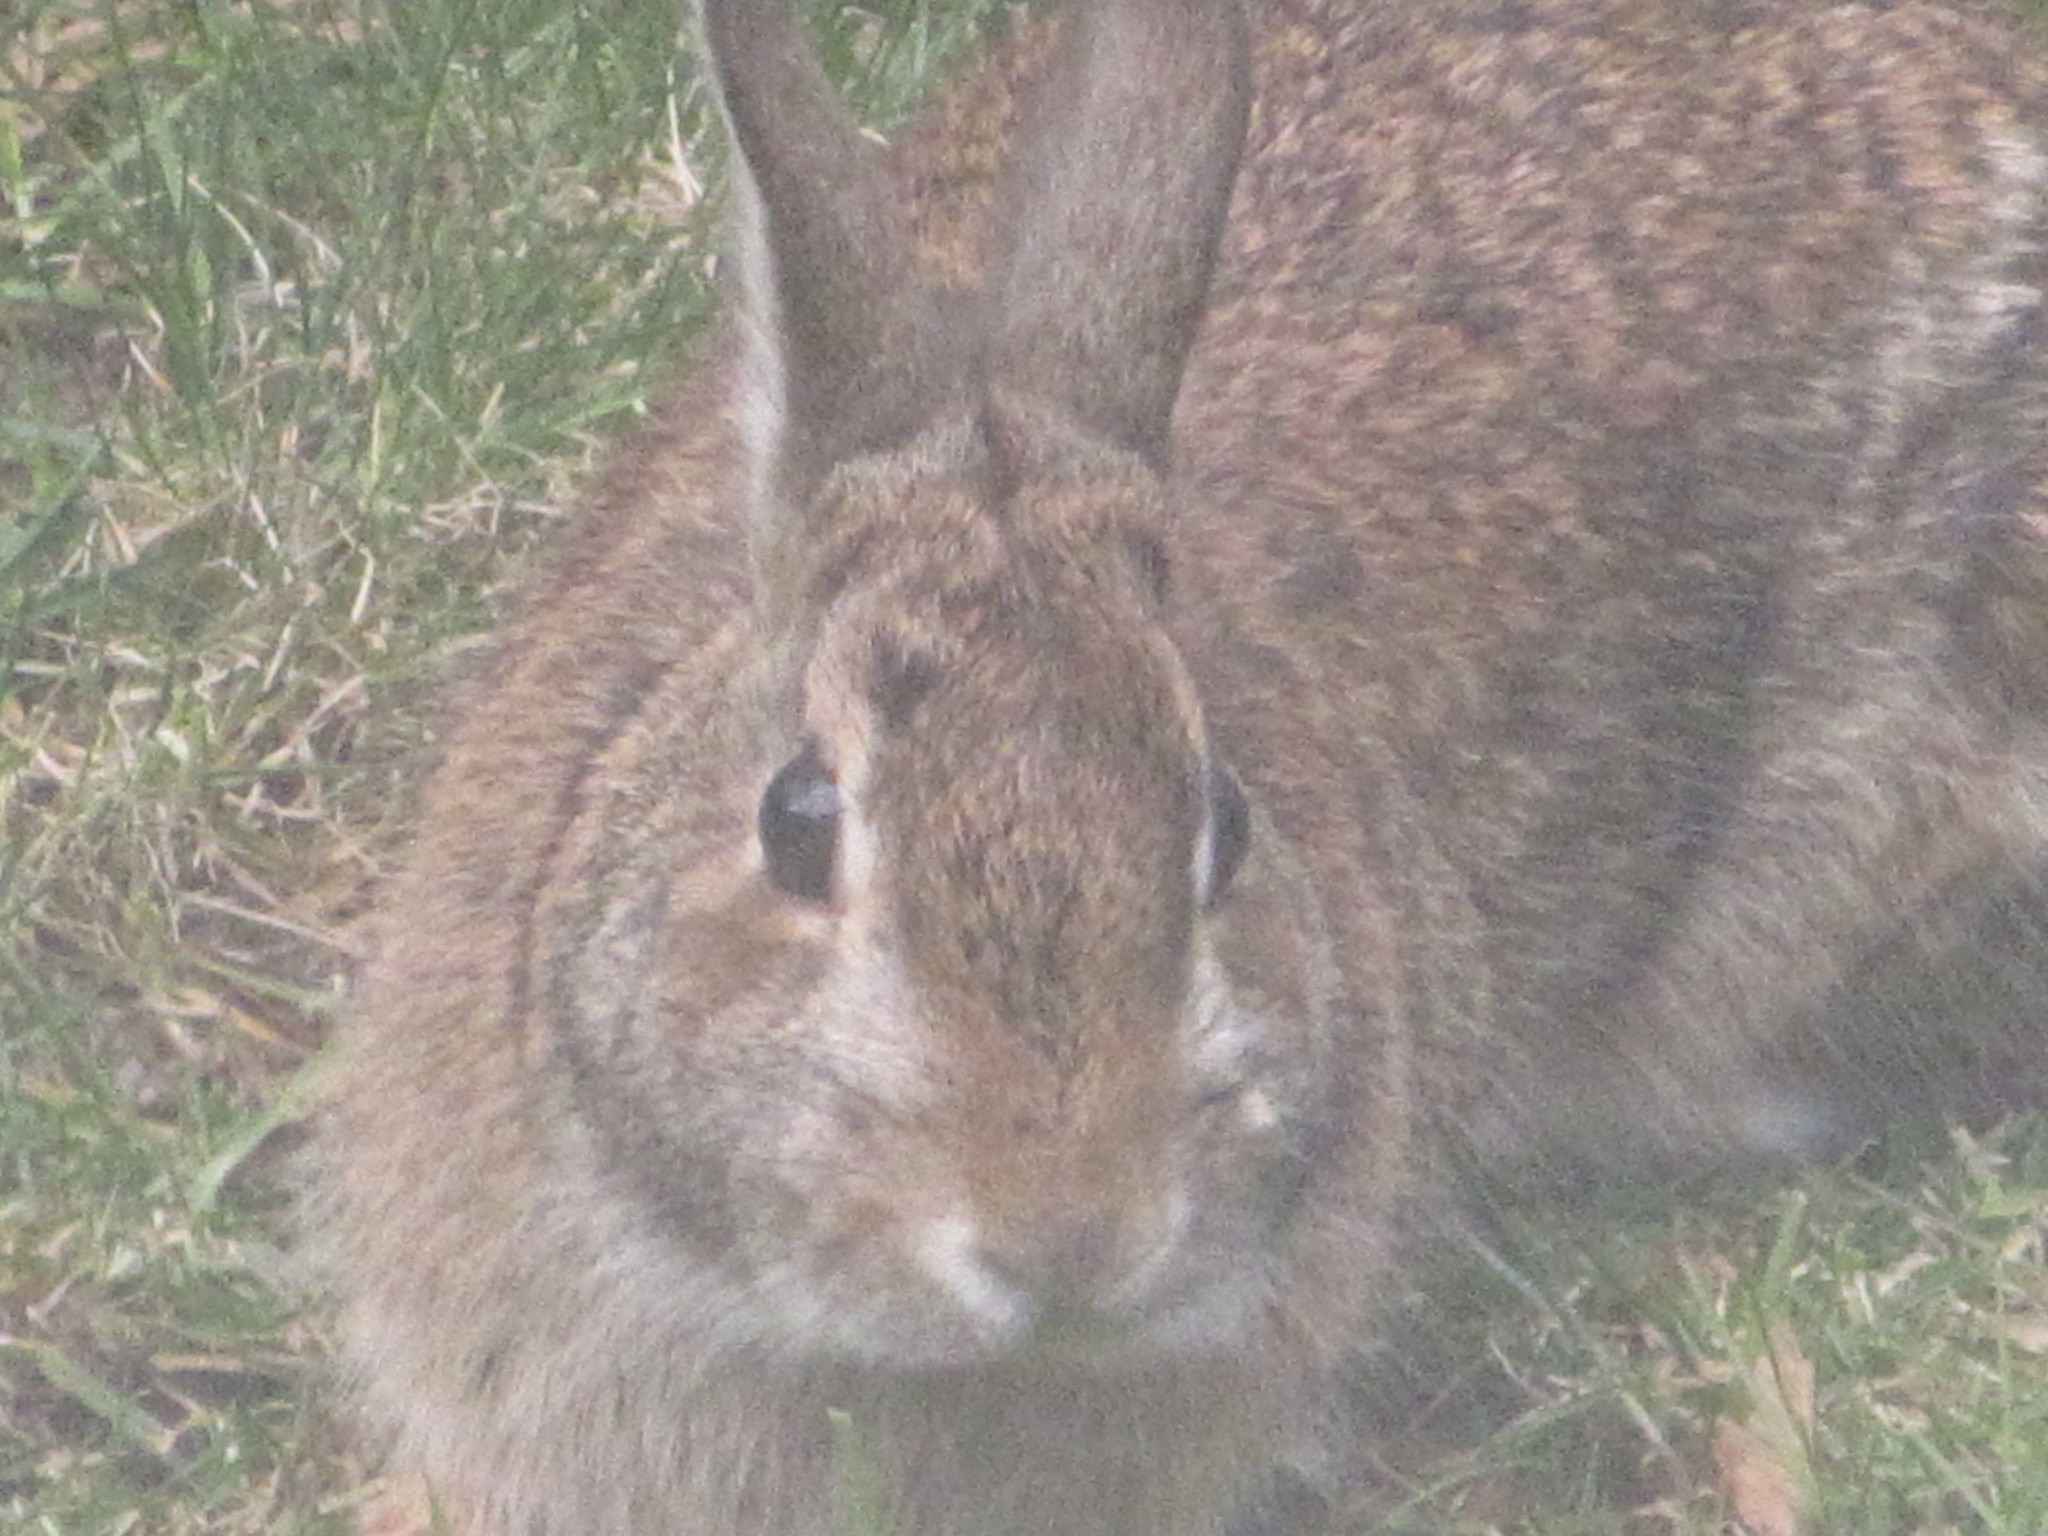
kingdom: Animalia
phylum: Chordata
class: Mammalia
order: Lagomorpha
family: Leporidae
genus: Sylvilagus
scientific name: Sylvilagus floridanus
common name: Eastern cottontail
